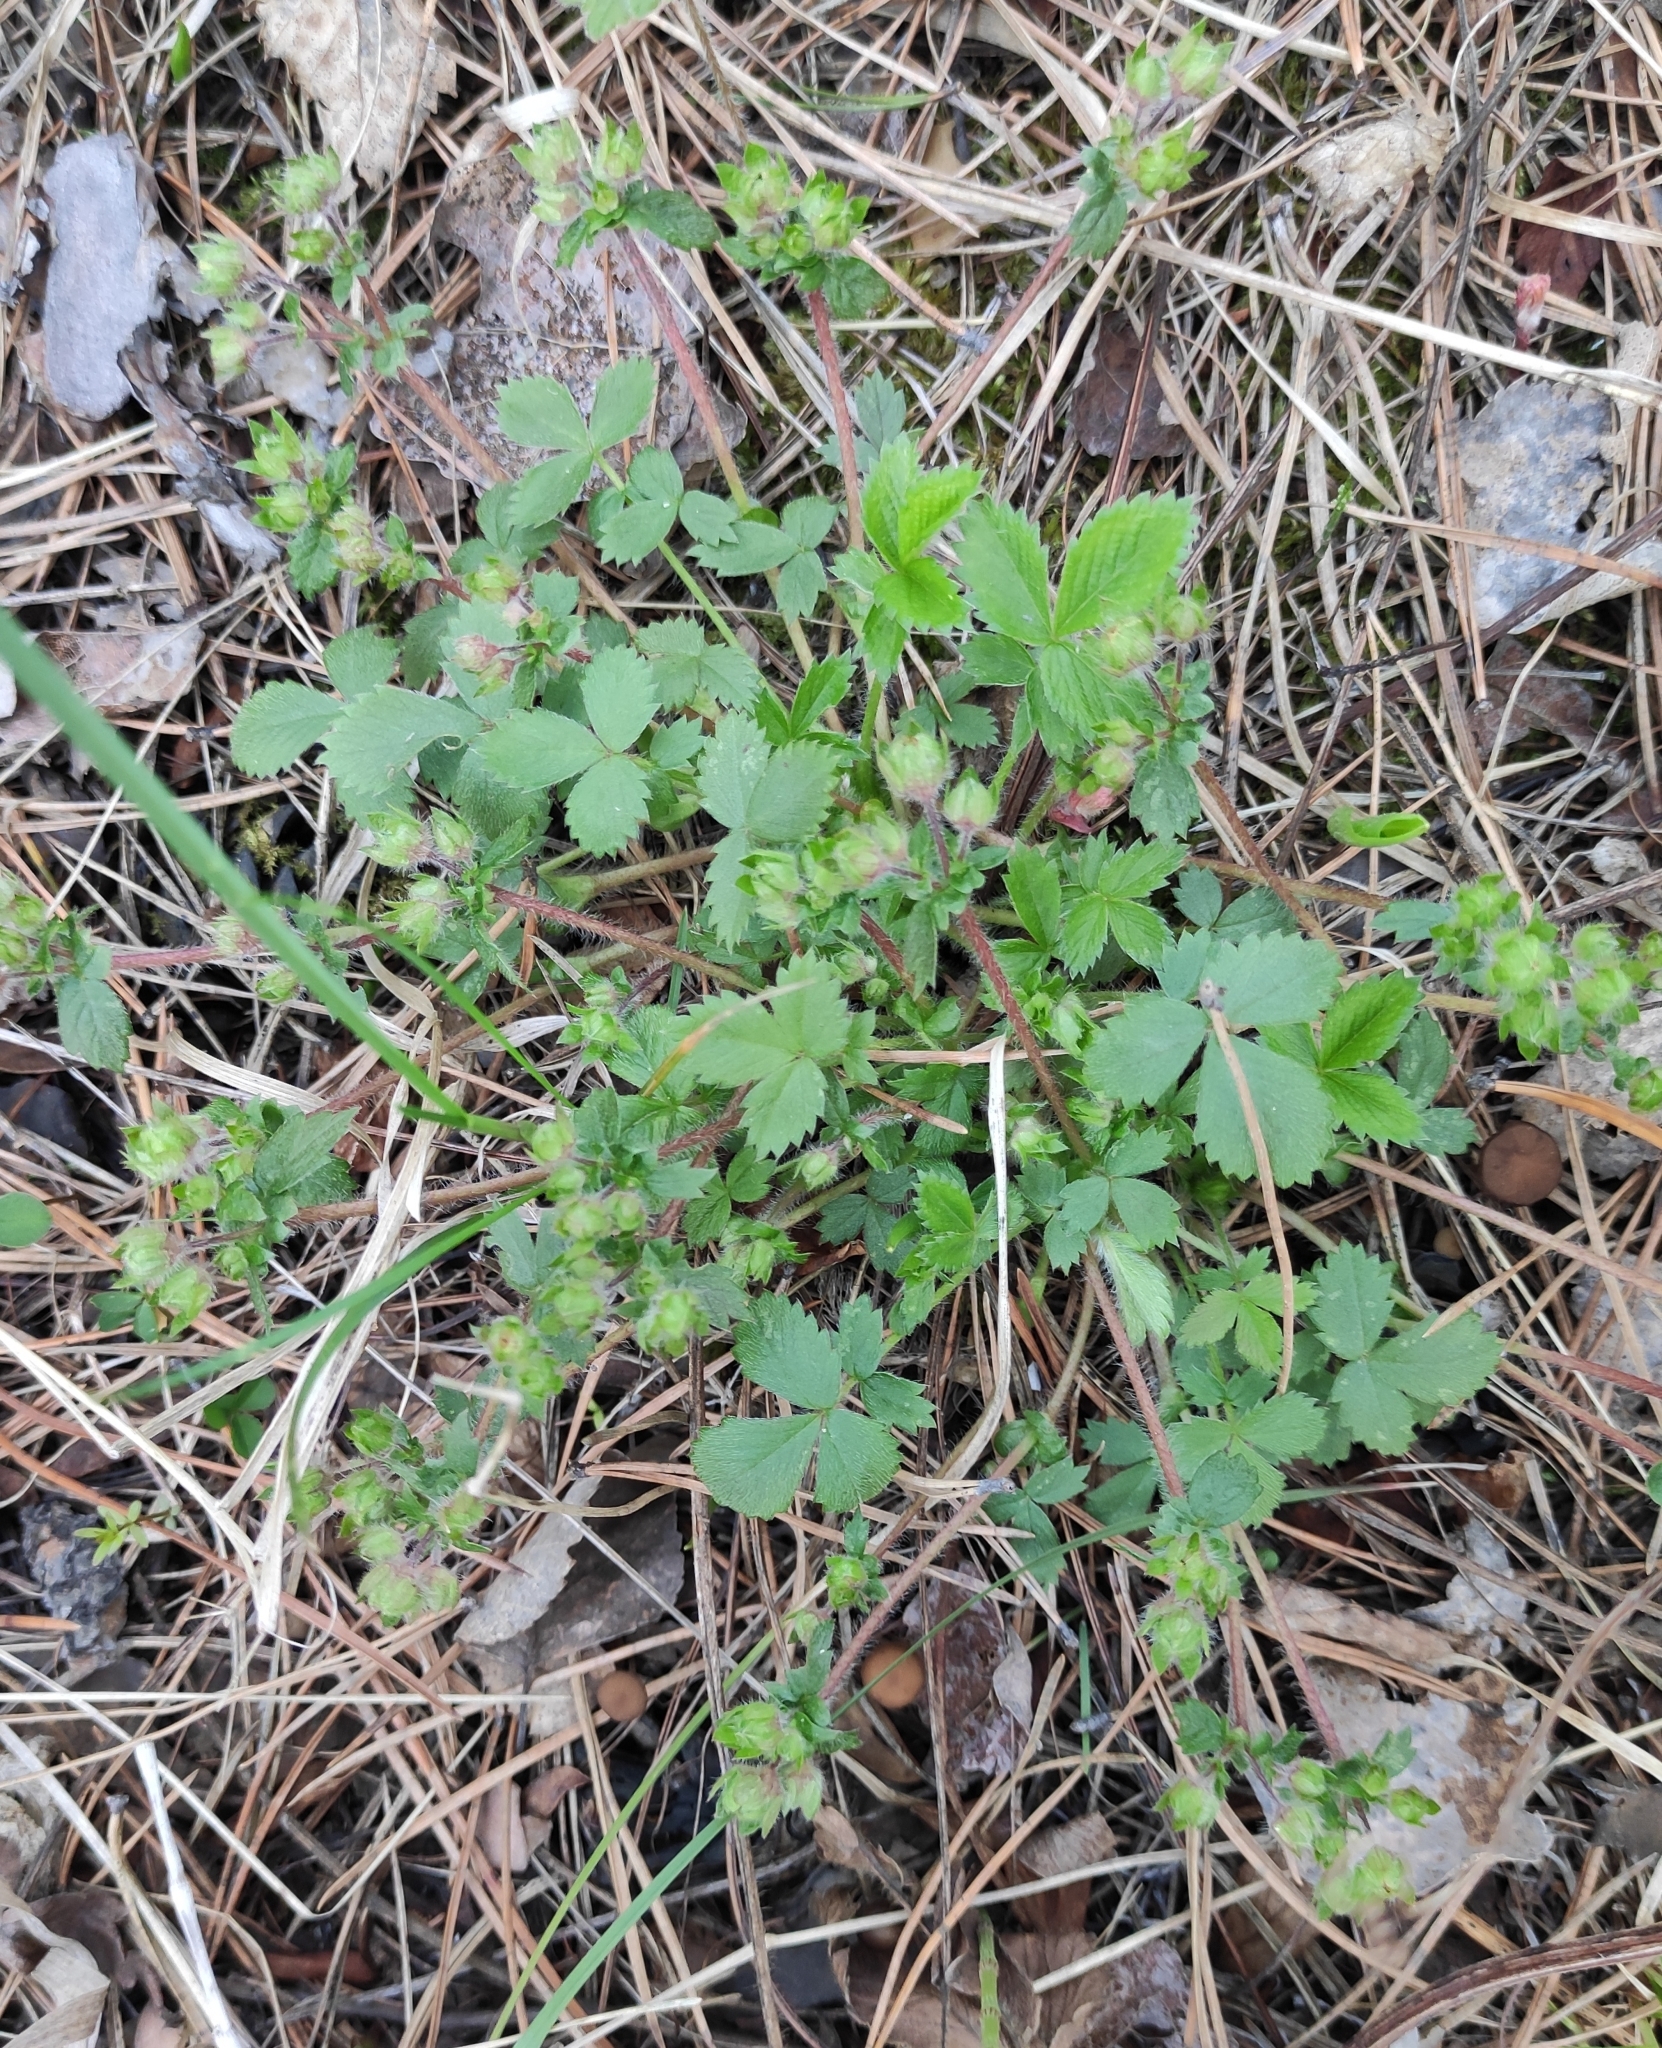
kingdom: Plantae
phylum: Tracheophyta
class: Magnoliopsida
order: Rosales
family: Rosaceae
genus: Potentilla
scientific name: Potentilla fragarioides
